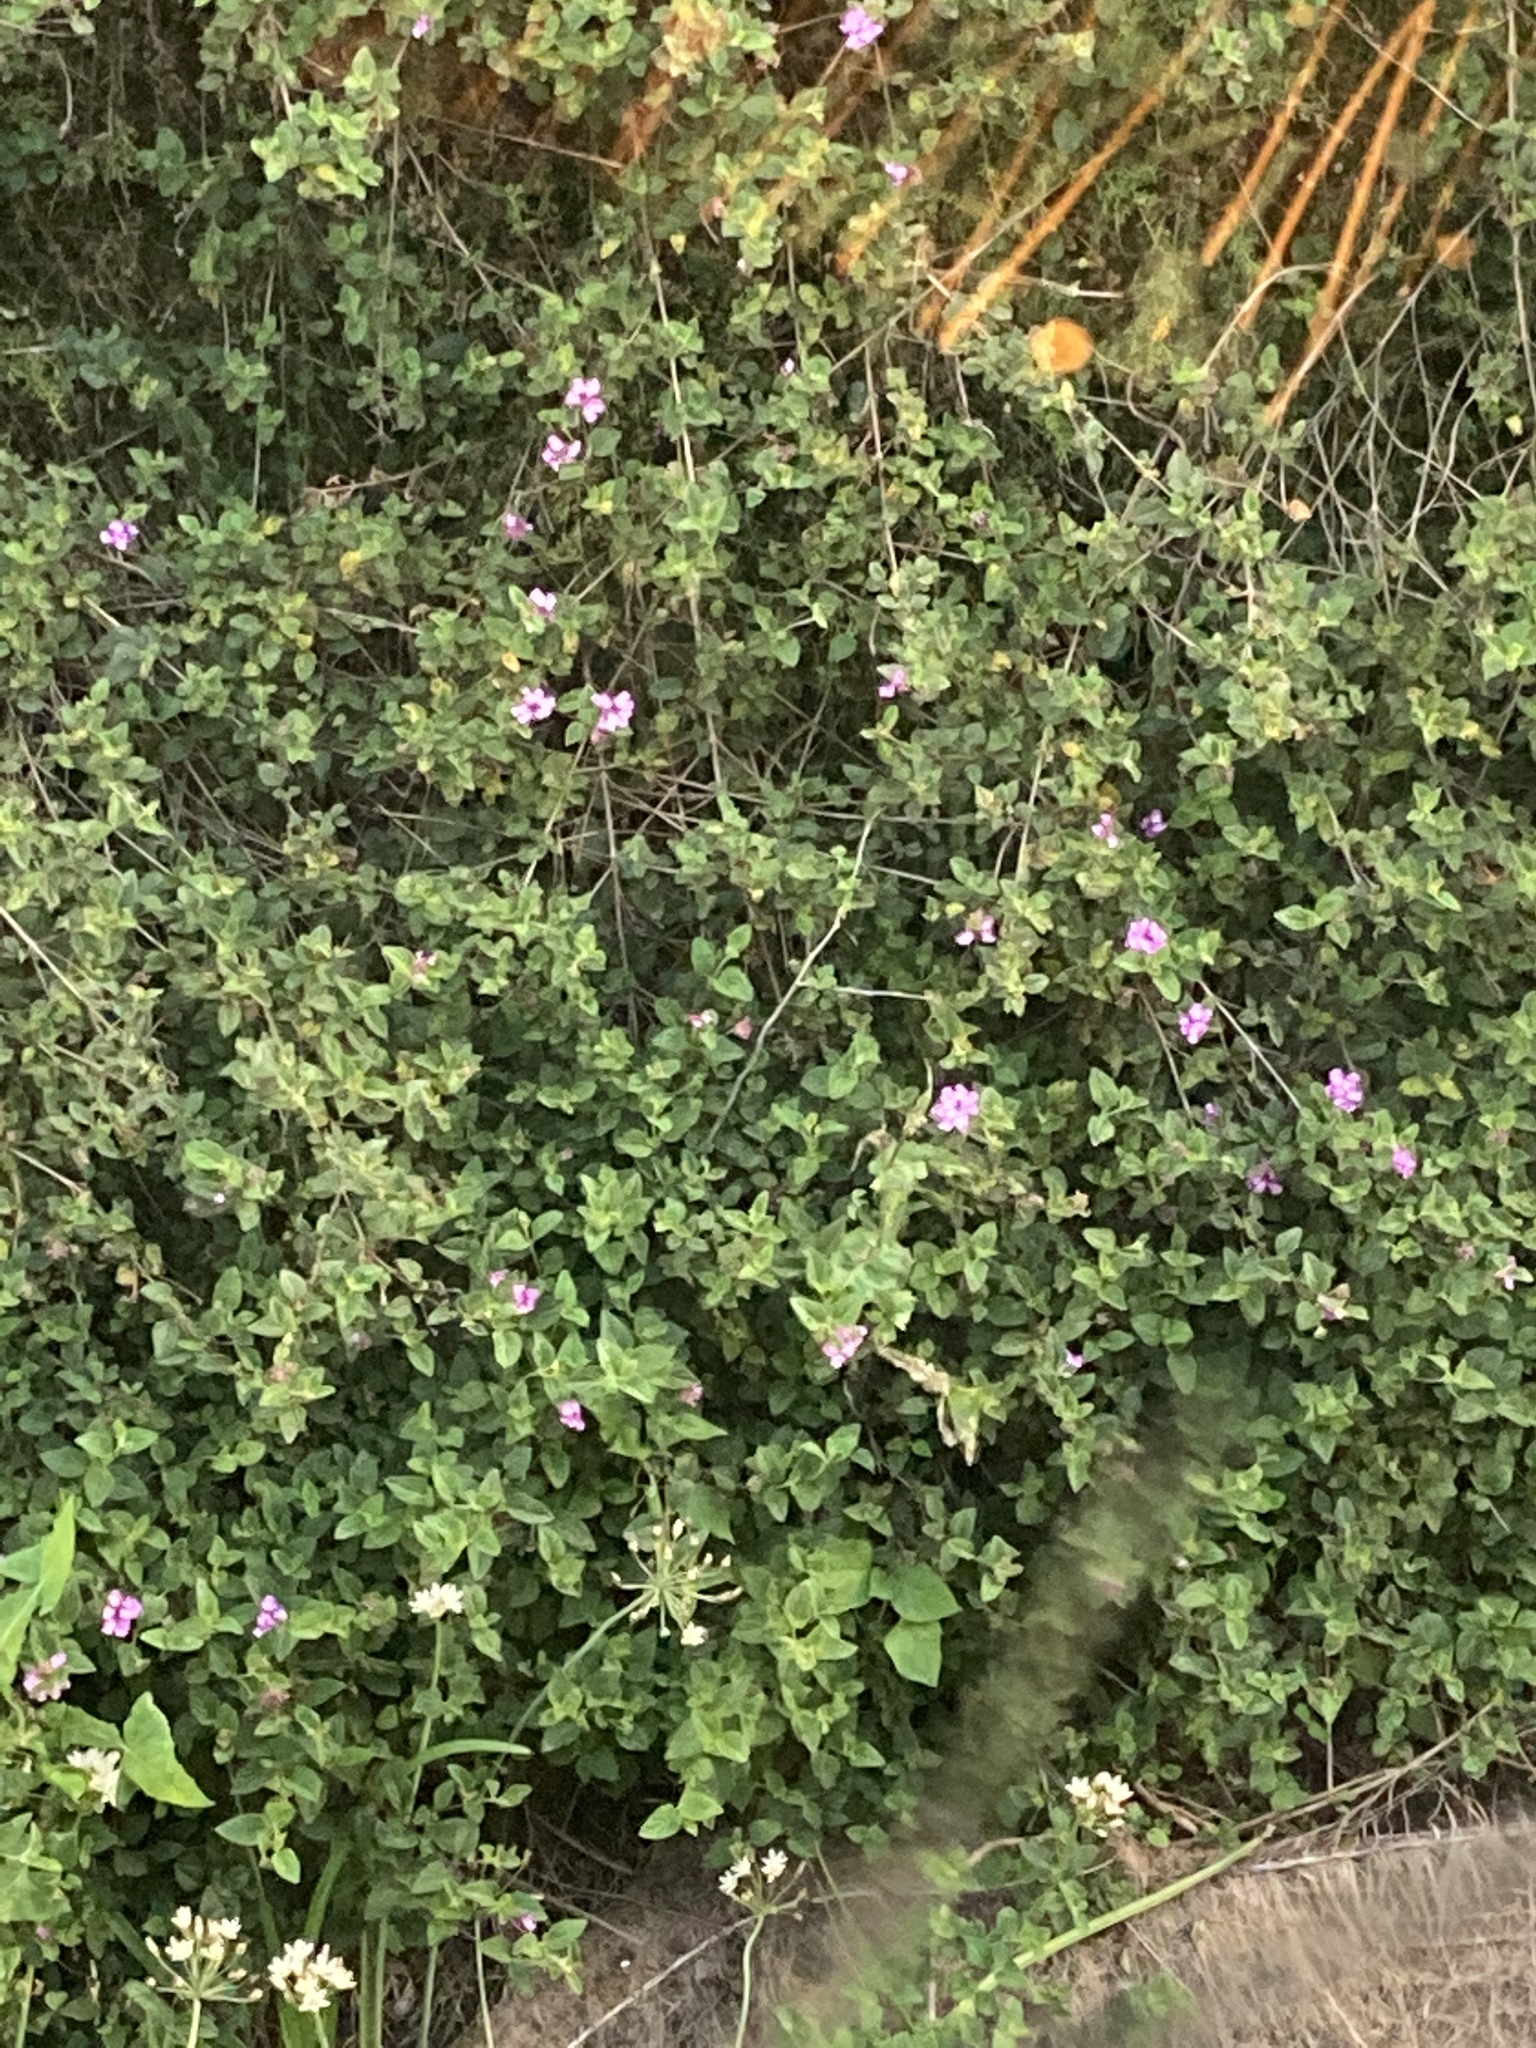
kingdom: Plantae
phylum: Tracheophyta
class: Magnoliopsida
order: Lamiales
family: Verbenaceae
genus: Lantana
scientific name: Lantana montevidensis
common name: Trailing shrubverbena
